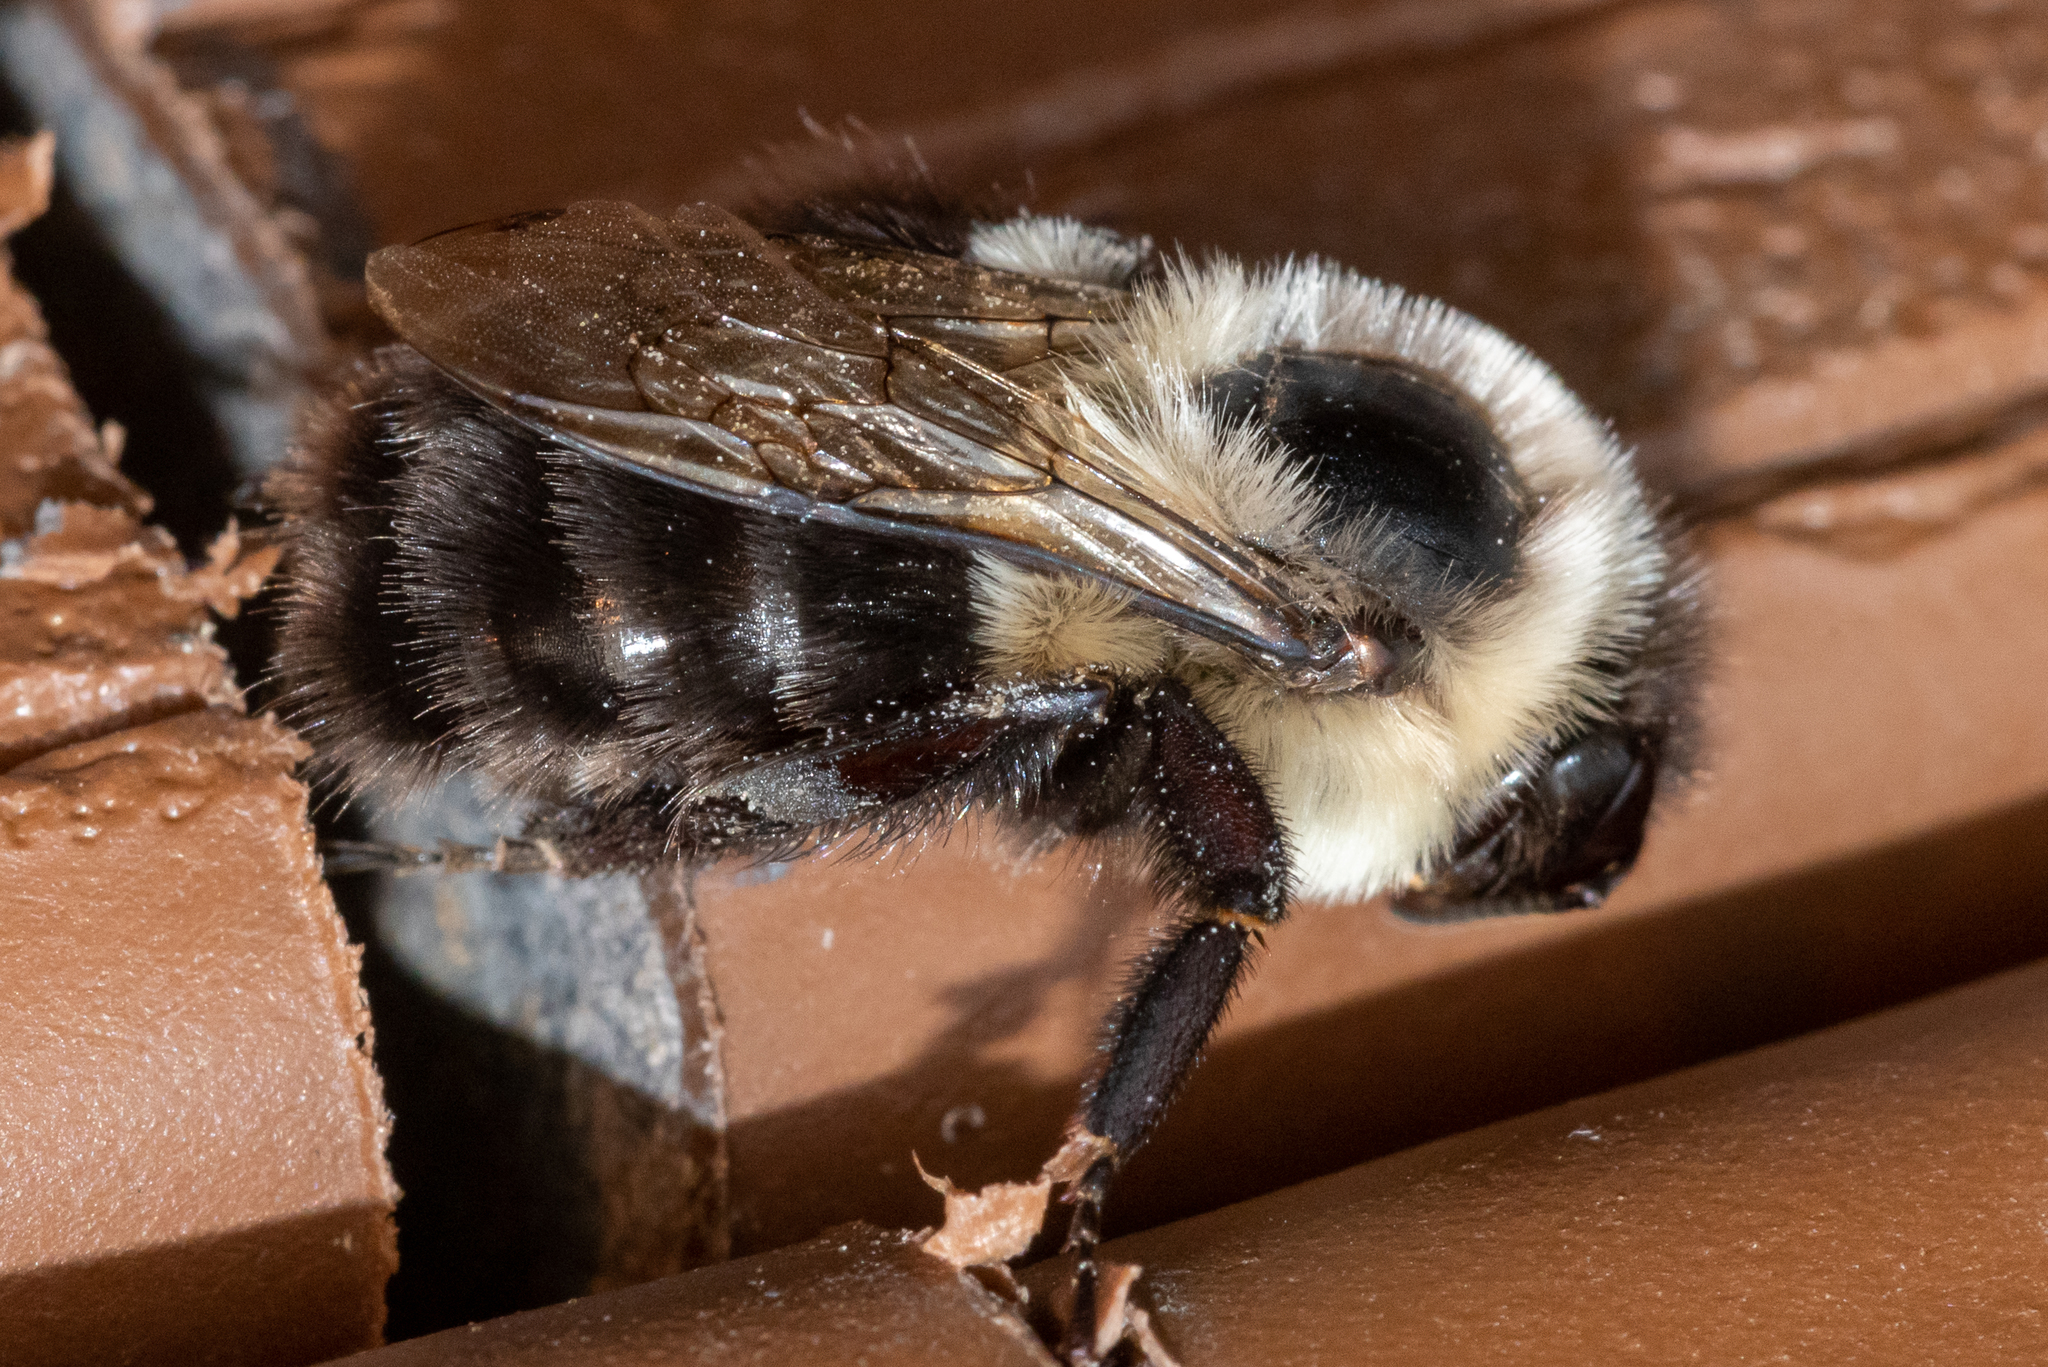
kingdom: Animalia
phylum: Arthropoda
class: Insecta
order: Hymenoptera
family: Apidae
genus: Bombus
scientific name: Bombus impatiens
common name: Common eastern bumble bee
